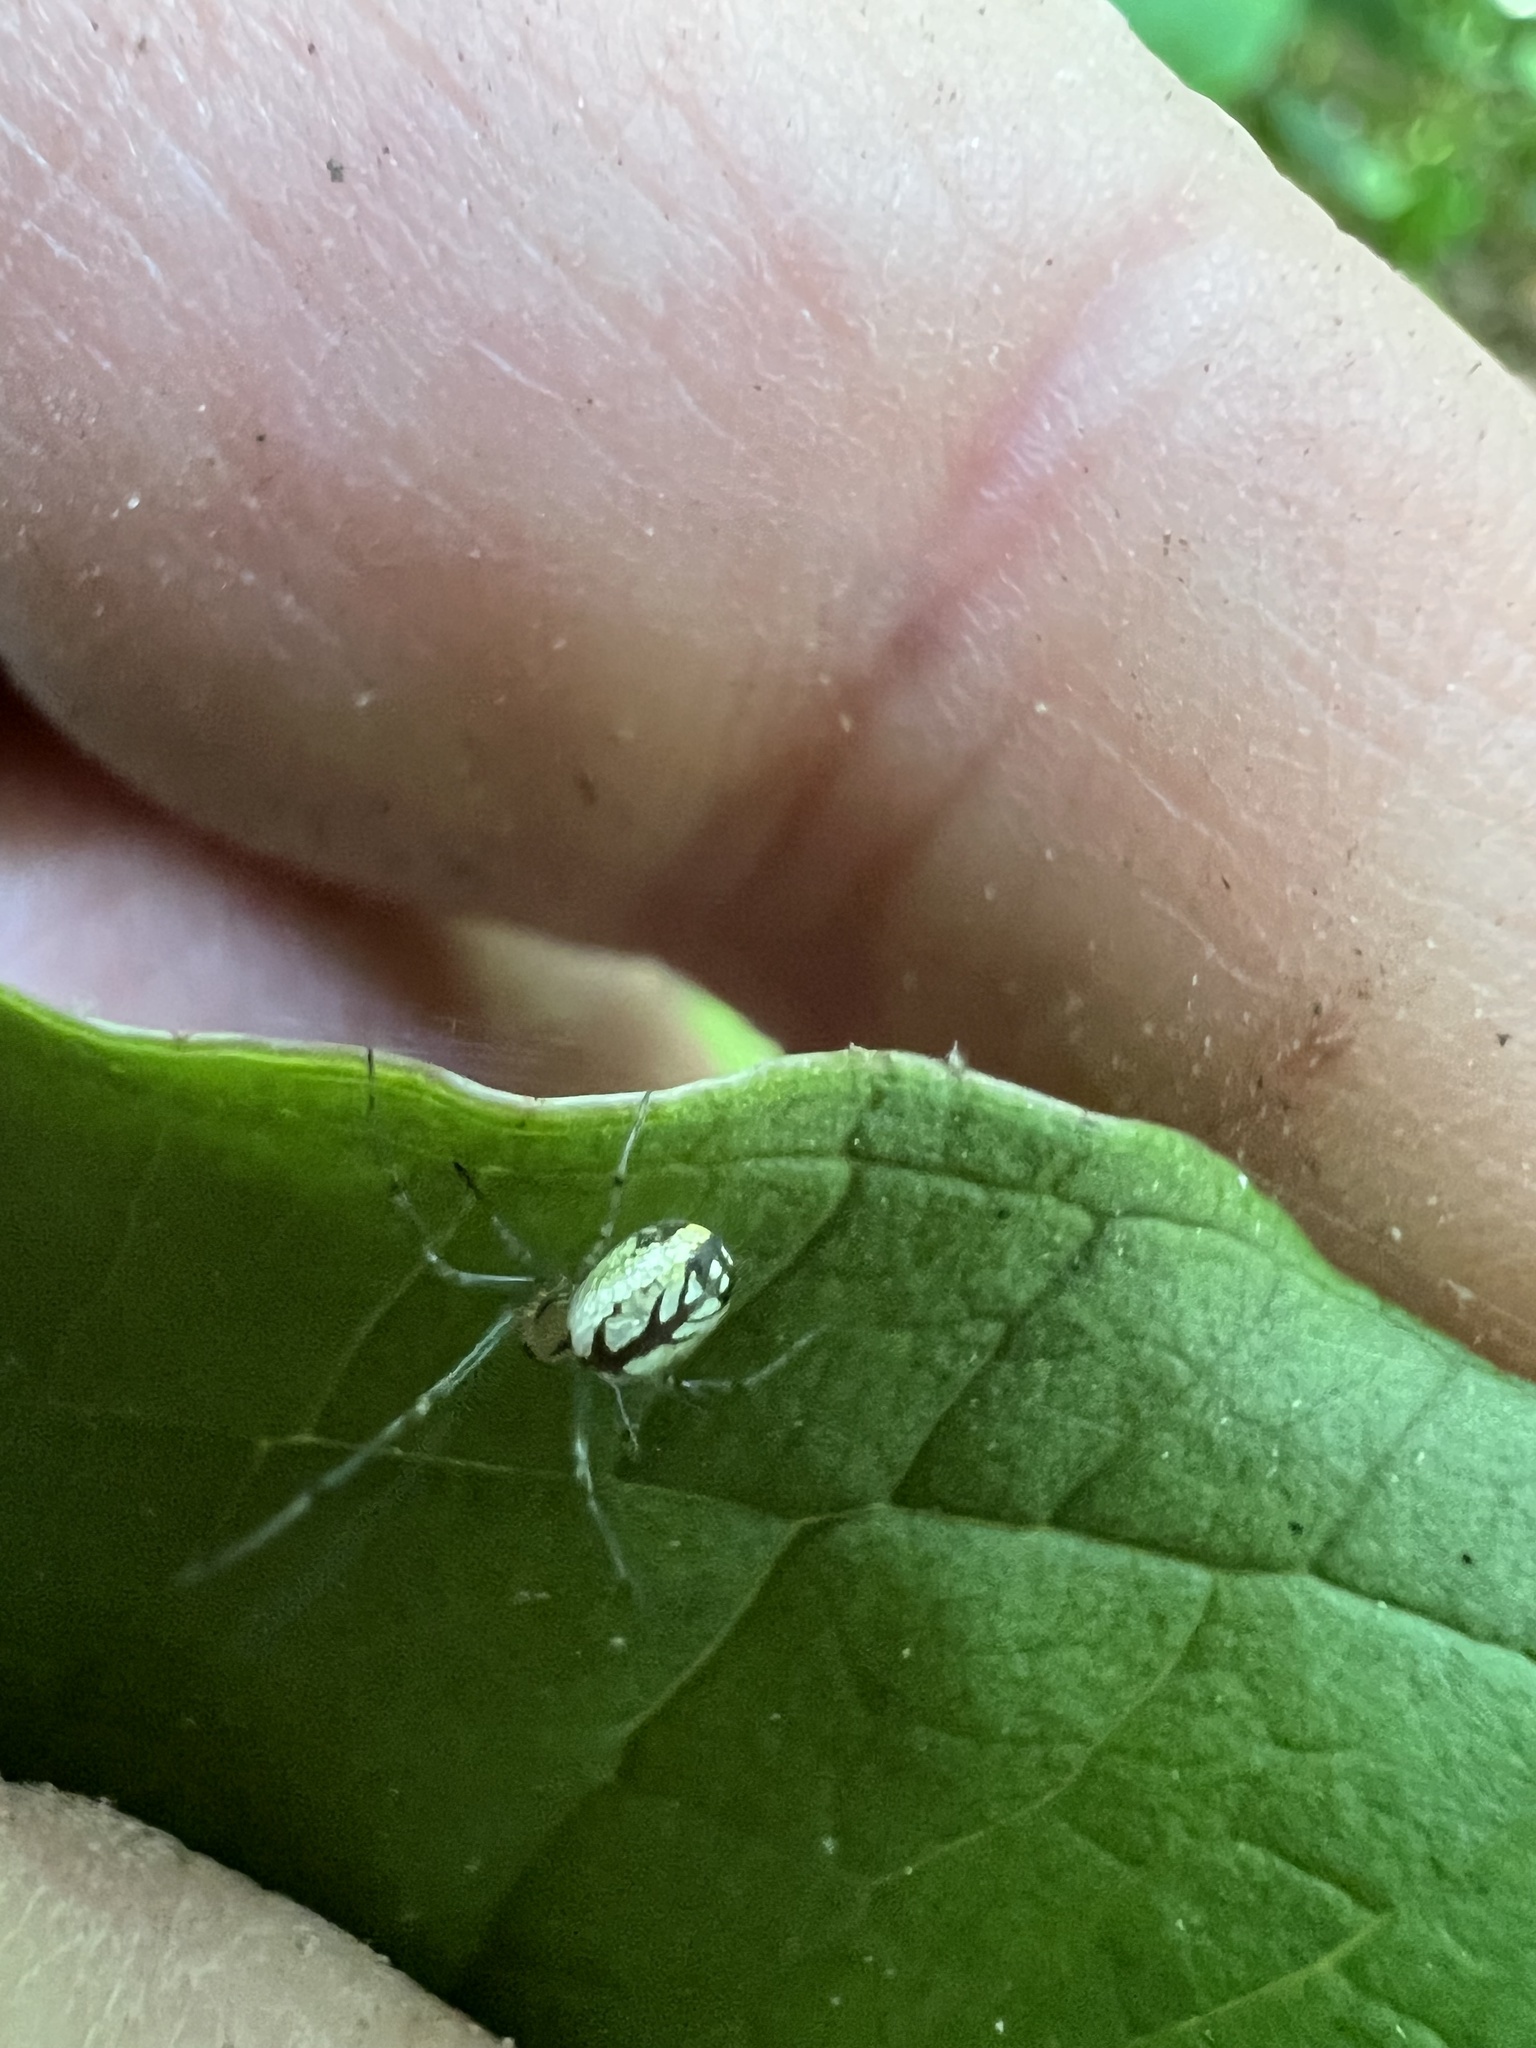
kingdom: Animalia
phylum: Arthropoda
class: Arachnida
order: Araneae
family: Tetragnathidae
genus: Leucauge
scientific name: Leucauge venusta
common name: Longjawed orb weavers
